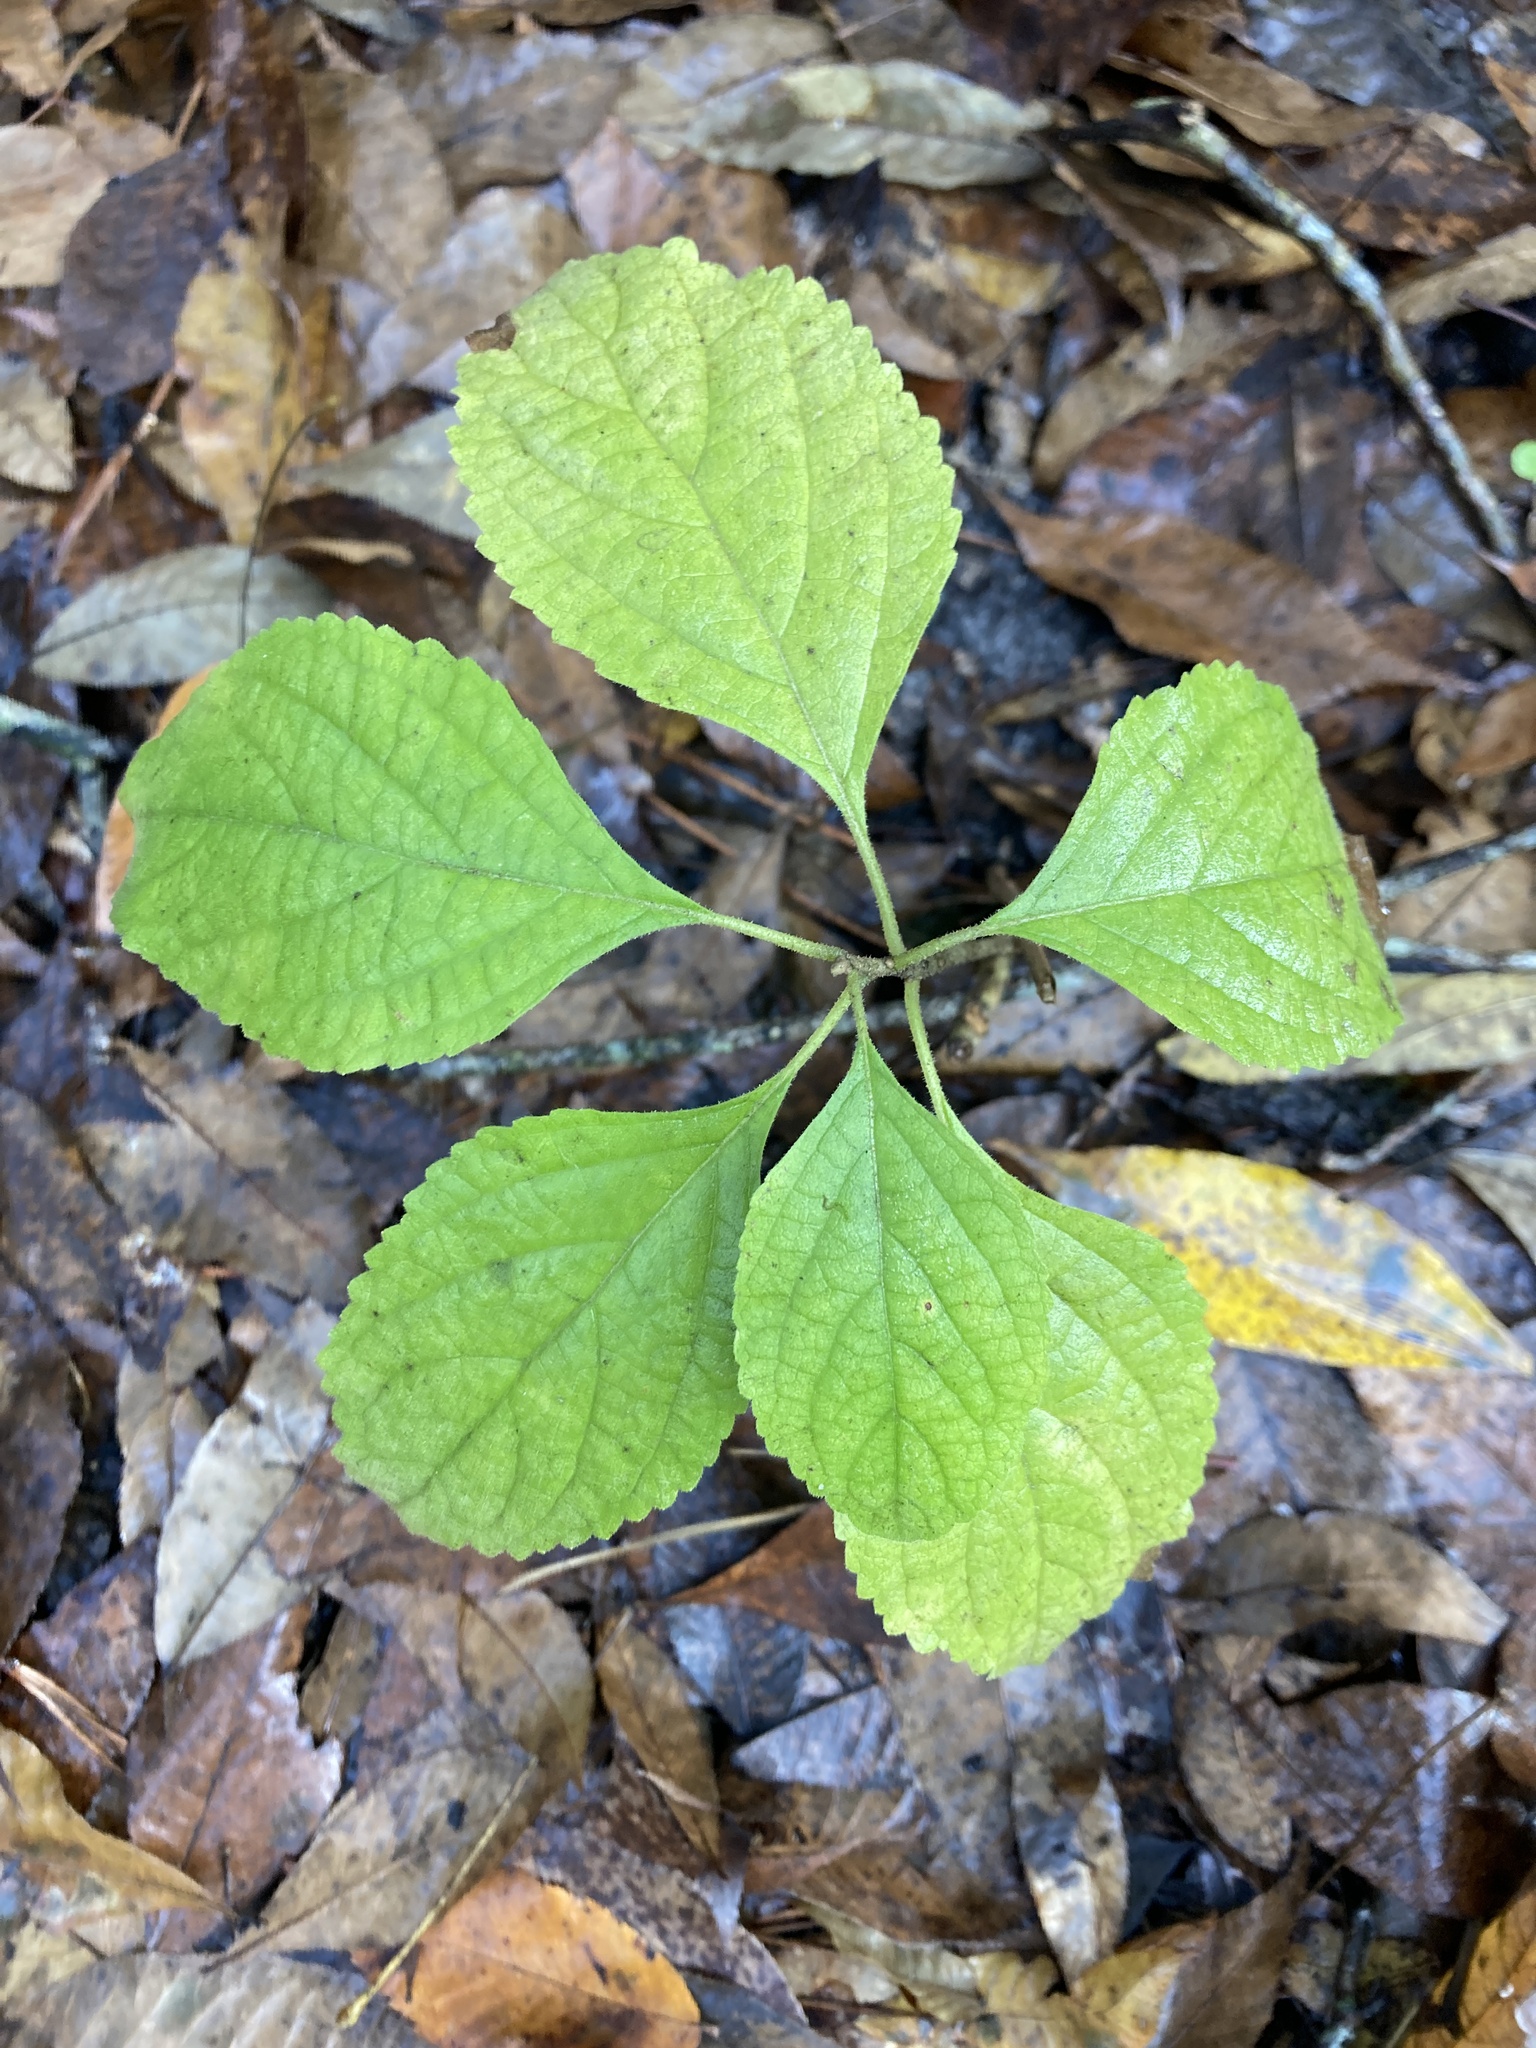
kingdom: Plantae
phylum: Tracheophyta
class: Magnoliopsida
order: Lamiales
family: Lamiaceae
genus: Callicarpa
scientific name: Callicarpa americana
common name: American beautyberry
